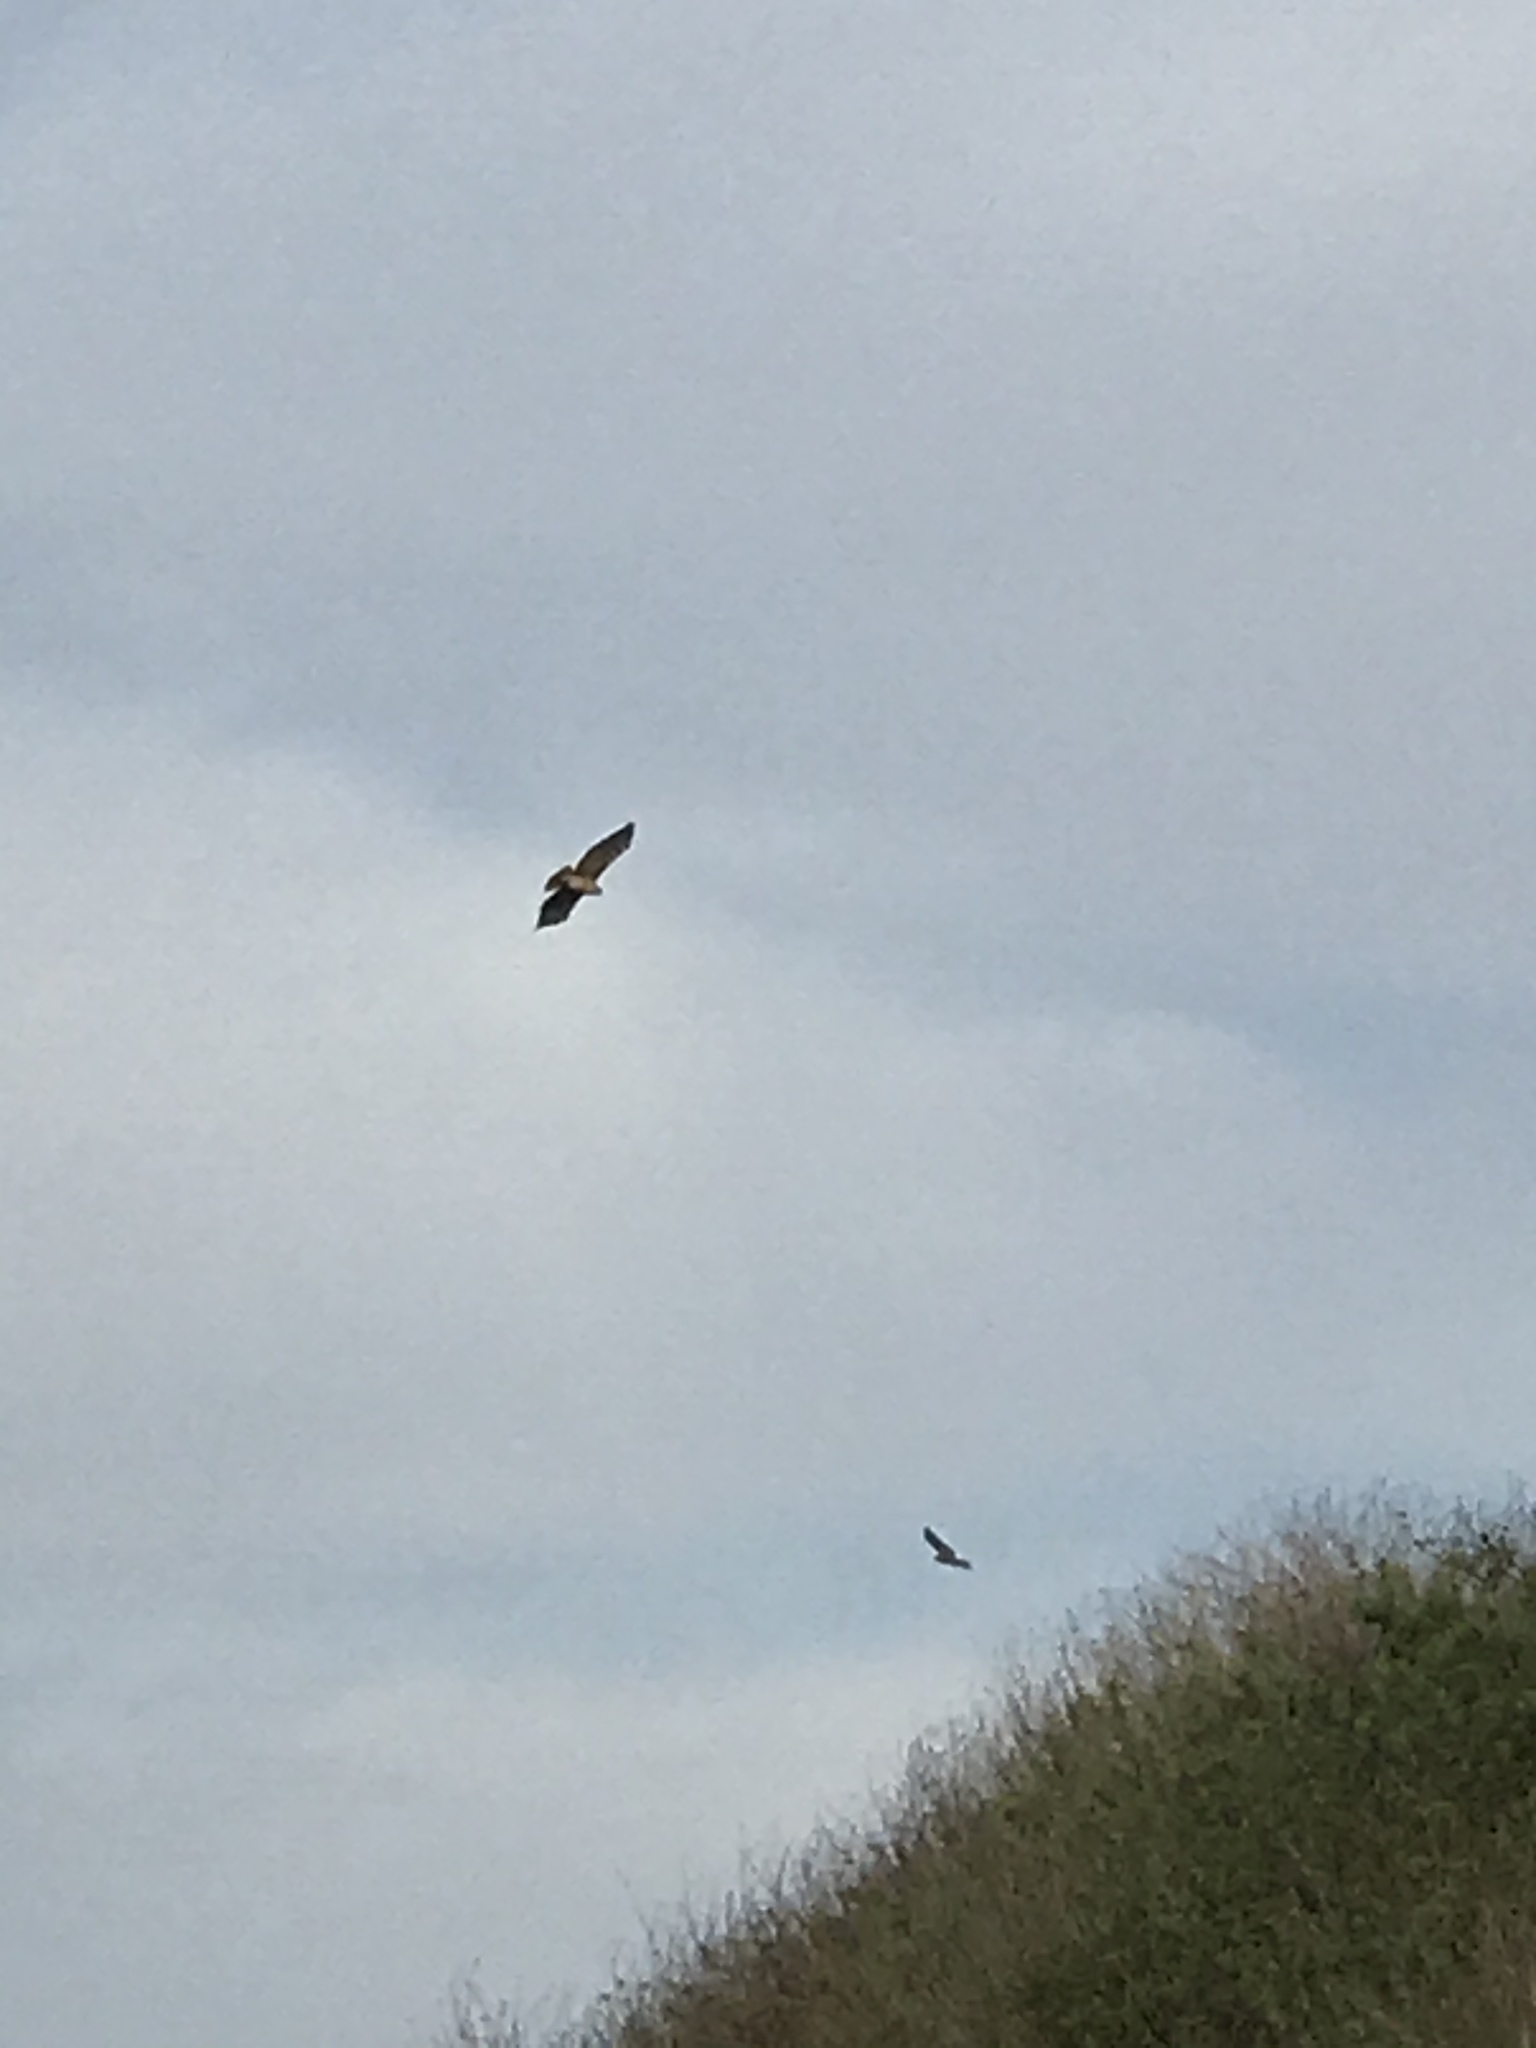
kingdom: Animalia
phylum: Chordata
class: Aves
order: Accipitriformes
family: Accipitridae
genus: Buteo
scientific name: Buteo jamaicensis
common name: Red-tailed hawk
